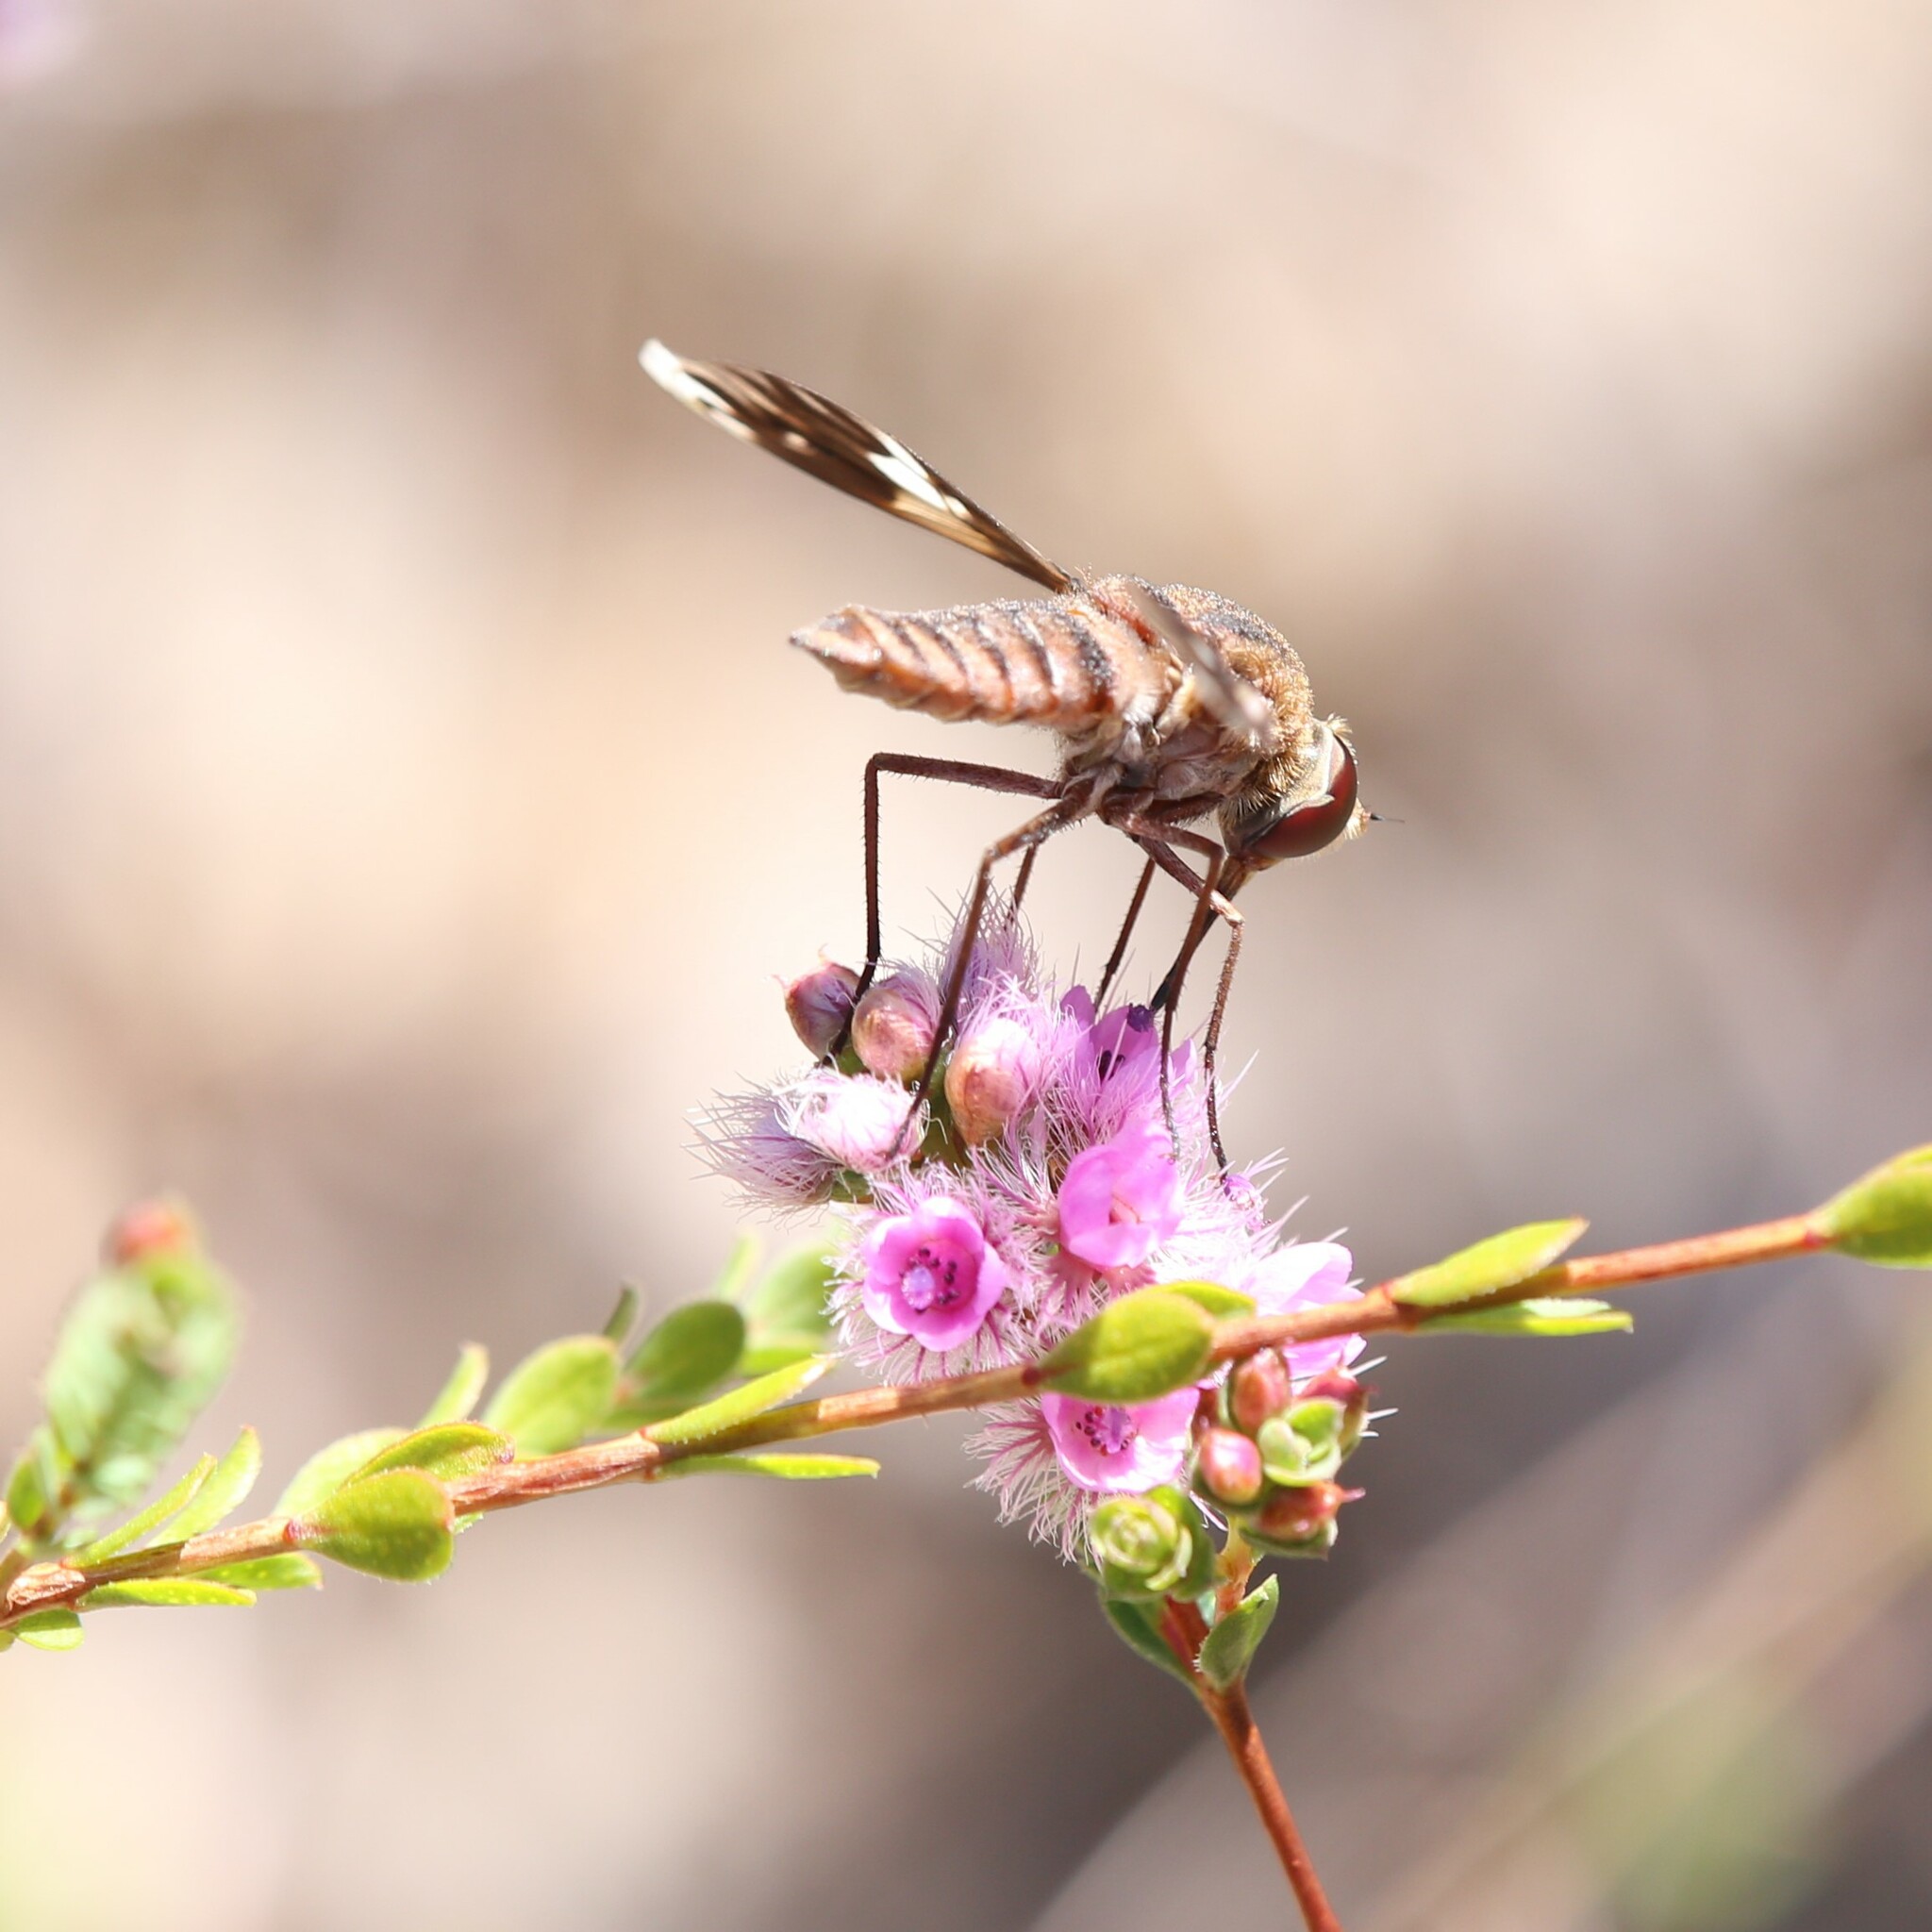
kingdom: Animalia
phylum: Arthropoda
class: Insecta
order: Diptera
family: Bombyliidae
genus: Comptosia
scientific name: Comptosia tendens
